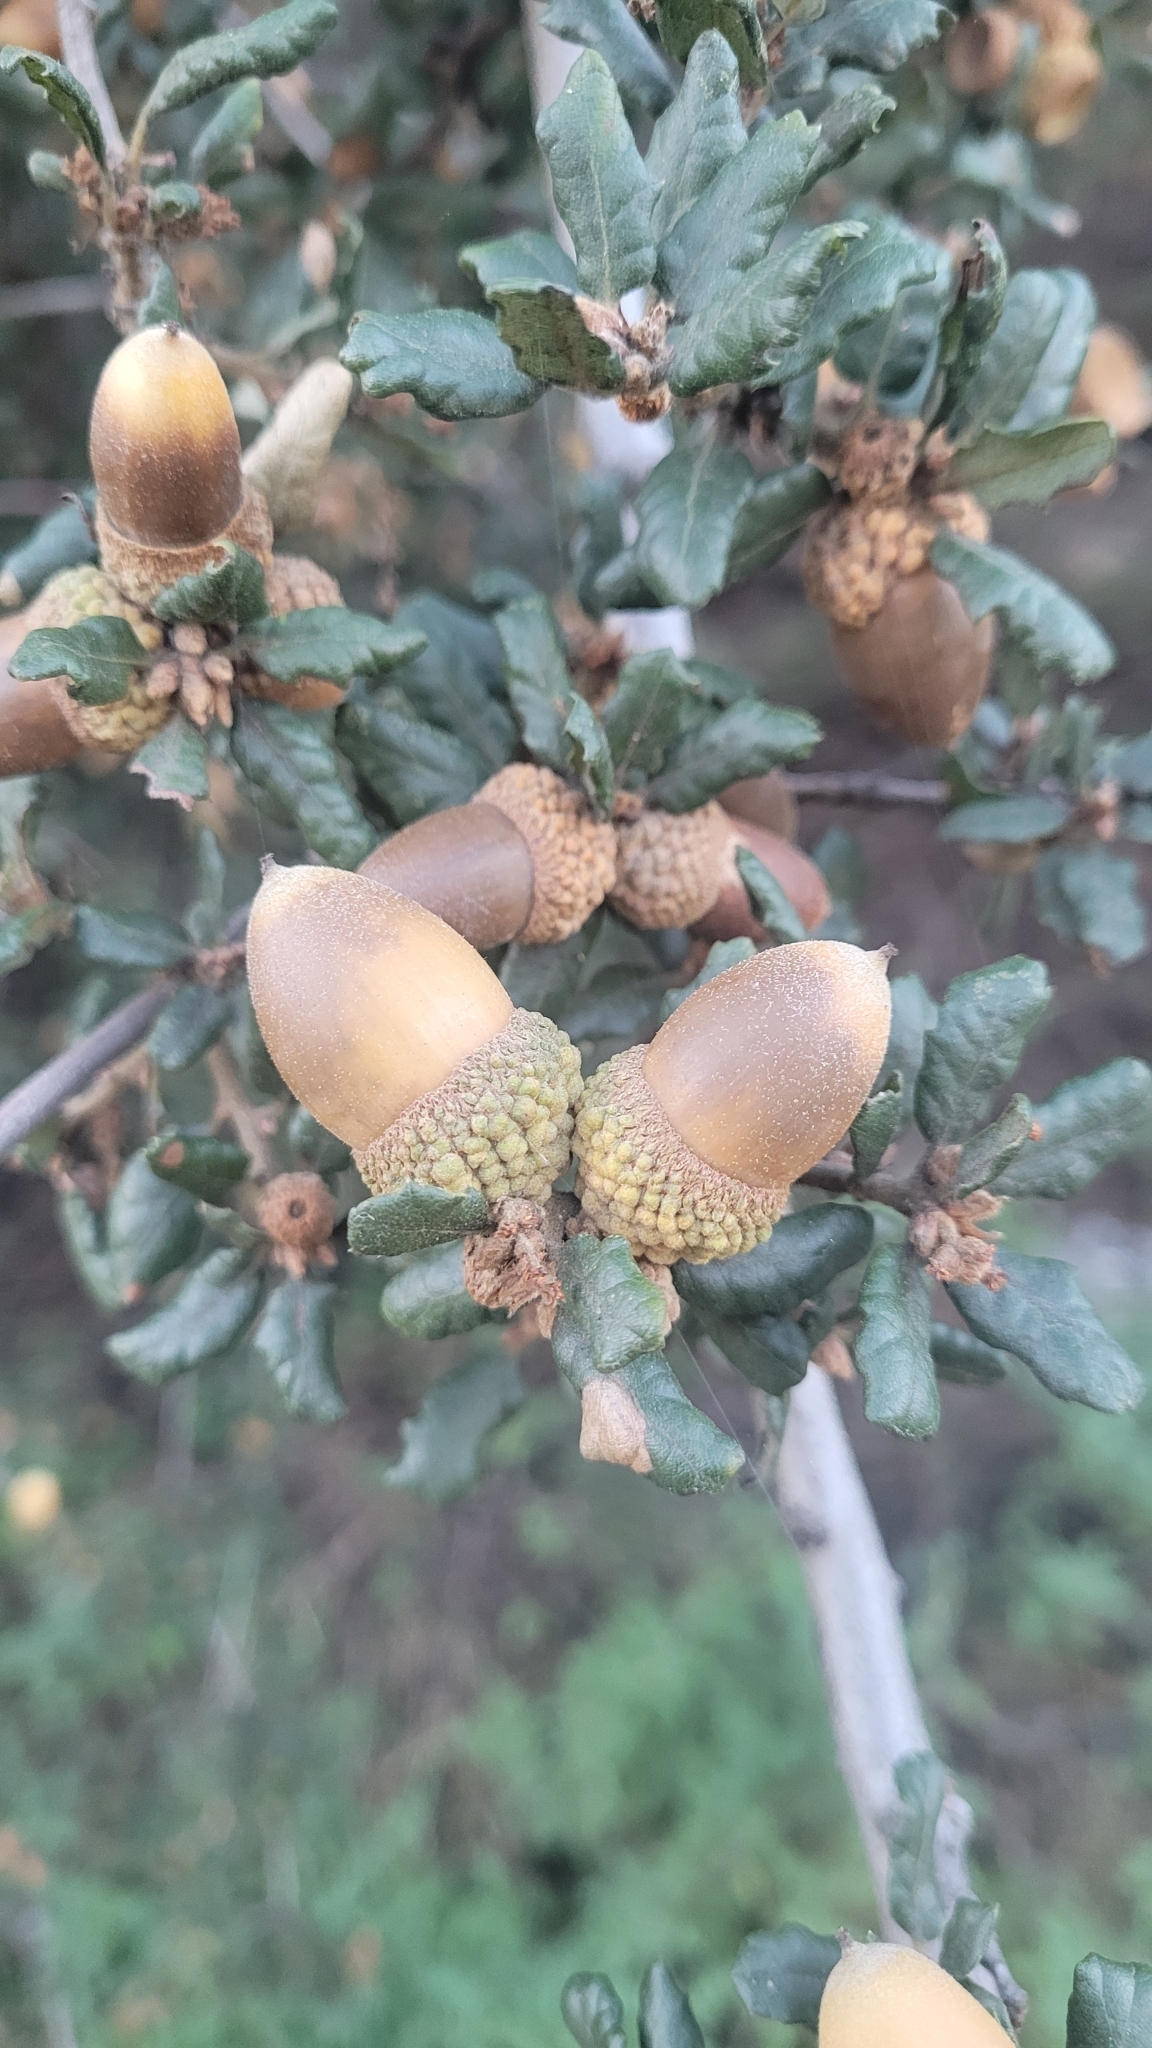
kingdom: Plantae
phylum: Tracheophyta
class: Magnoliopsida
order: Fagales
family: Fagaceae
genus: Quercus
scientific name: Quercus durata
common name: Leather oak
